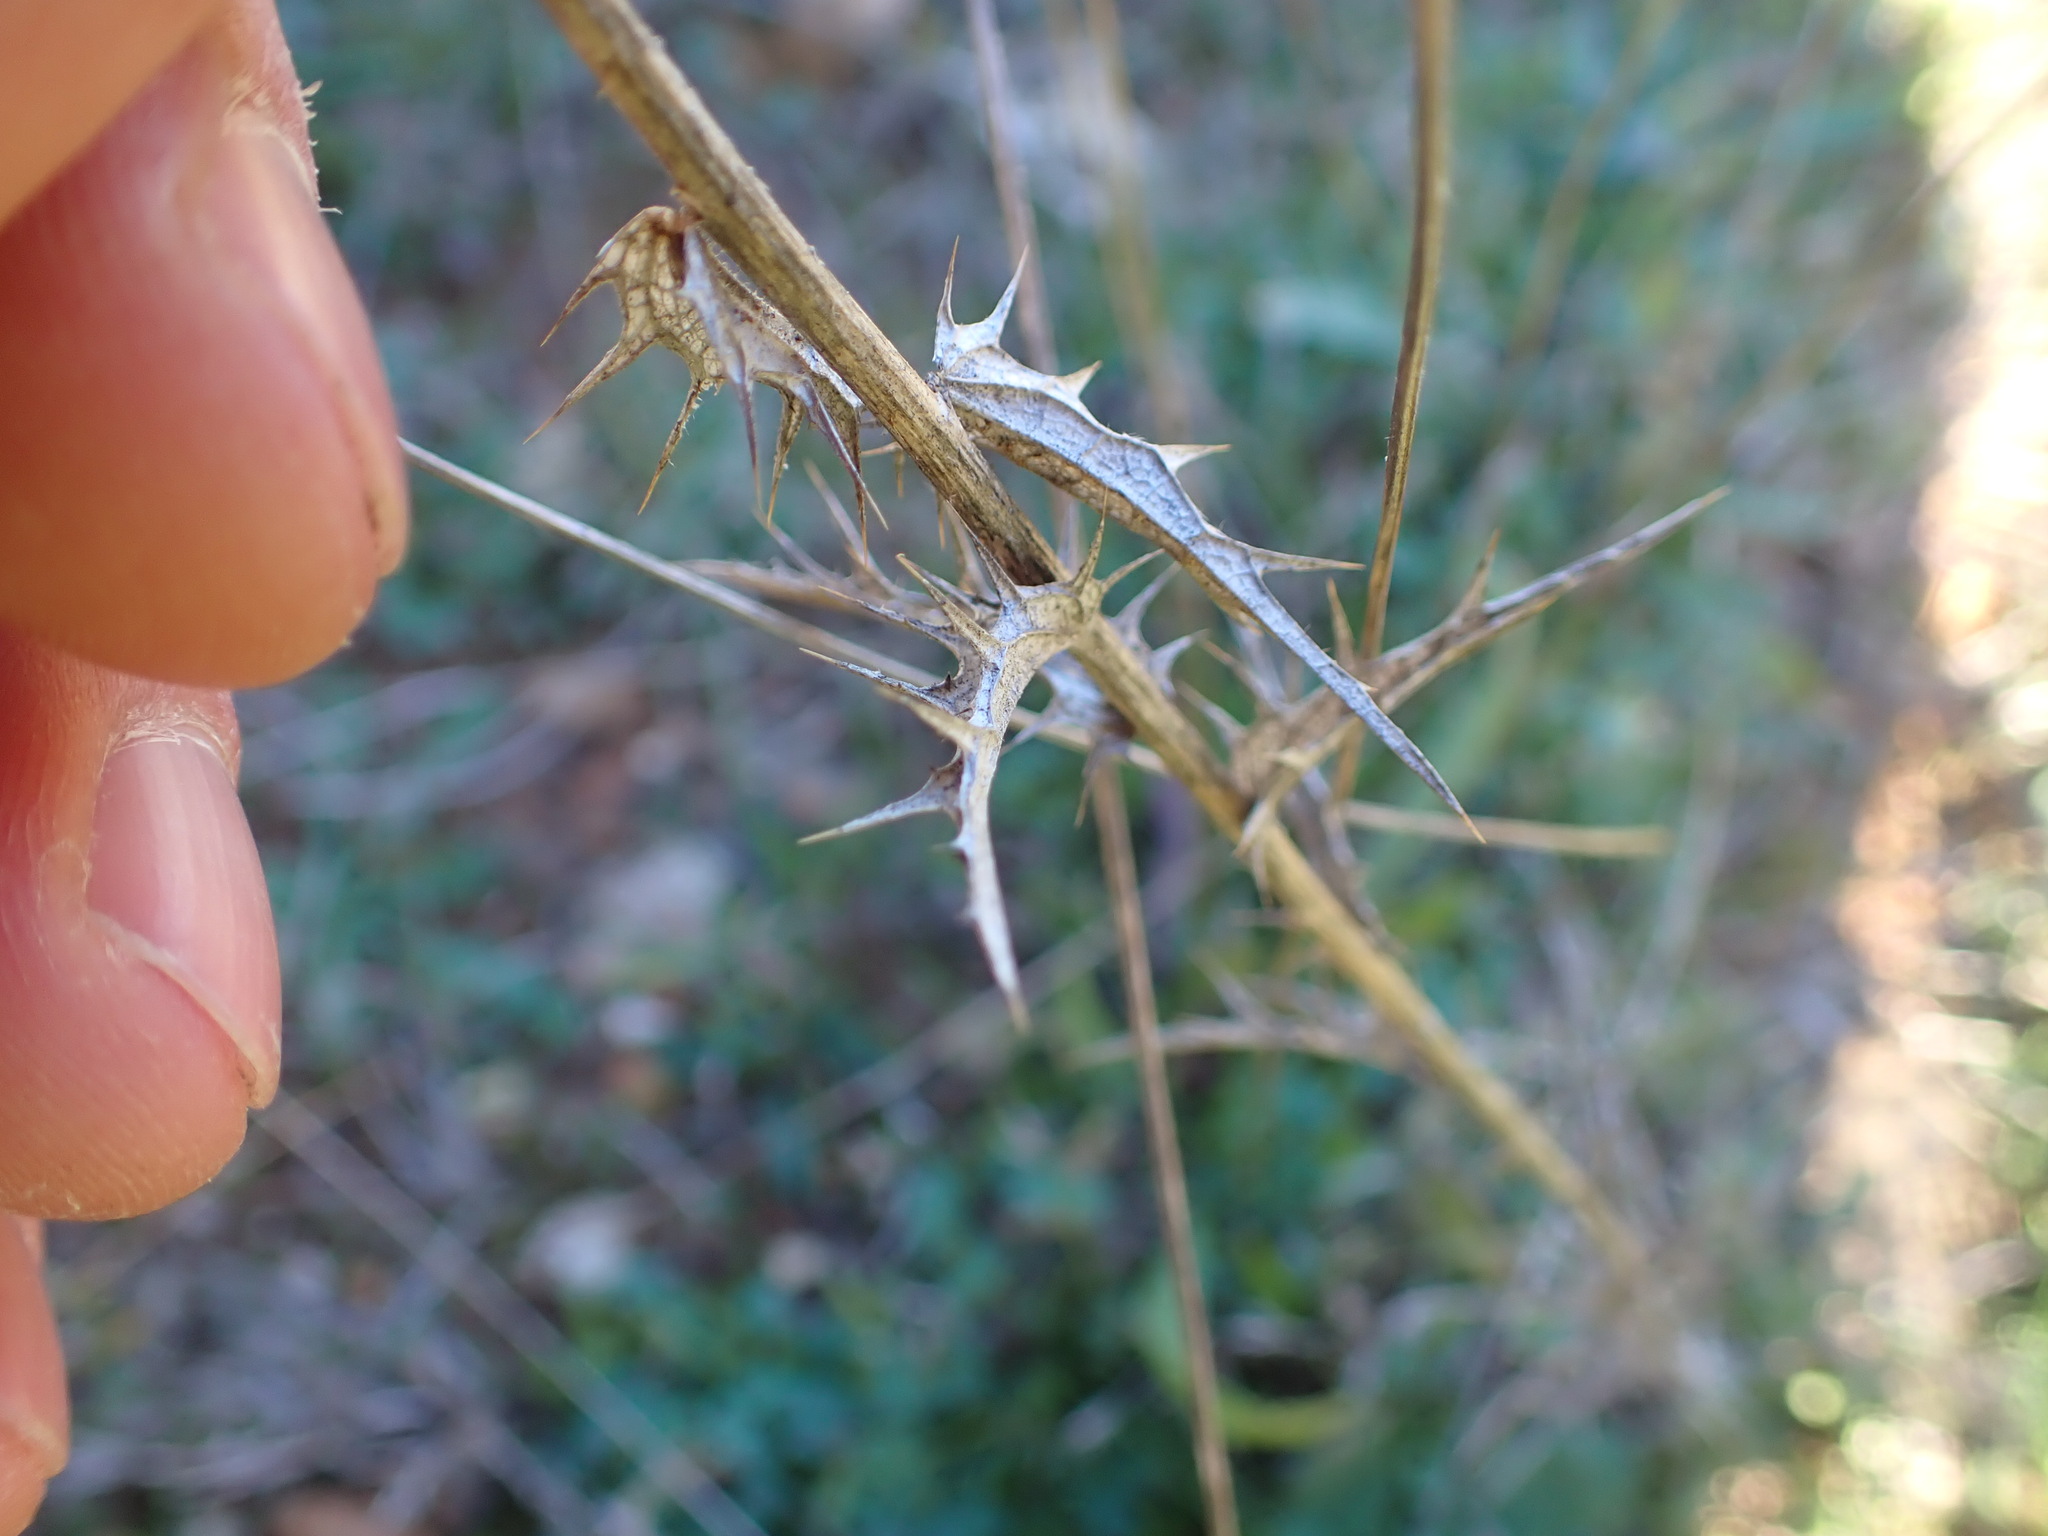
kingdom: Plantae
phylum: Tracheophyta
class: Magnoliopsida
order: Asterales
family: Asteraceae
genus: Carthamus
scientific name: Carthamus lanatus
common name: Downy safflower
